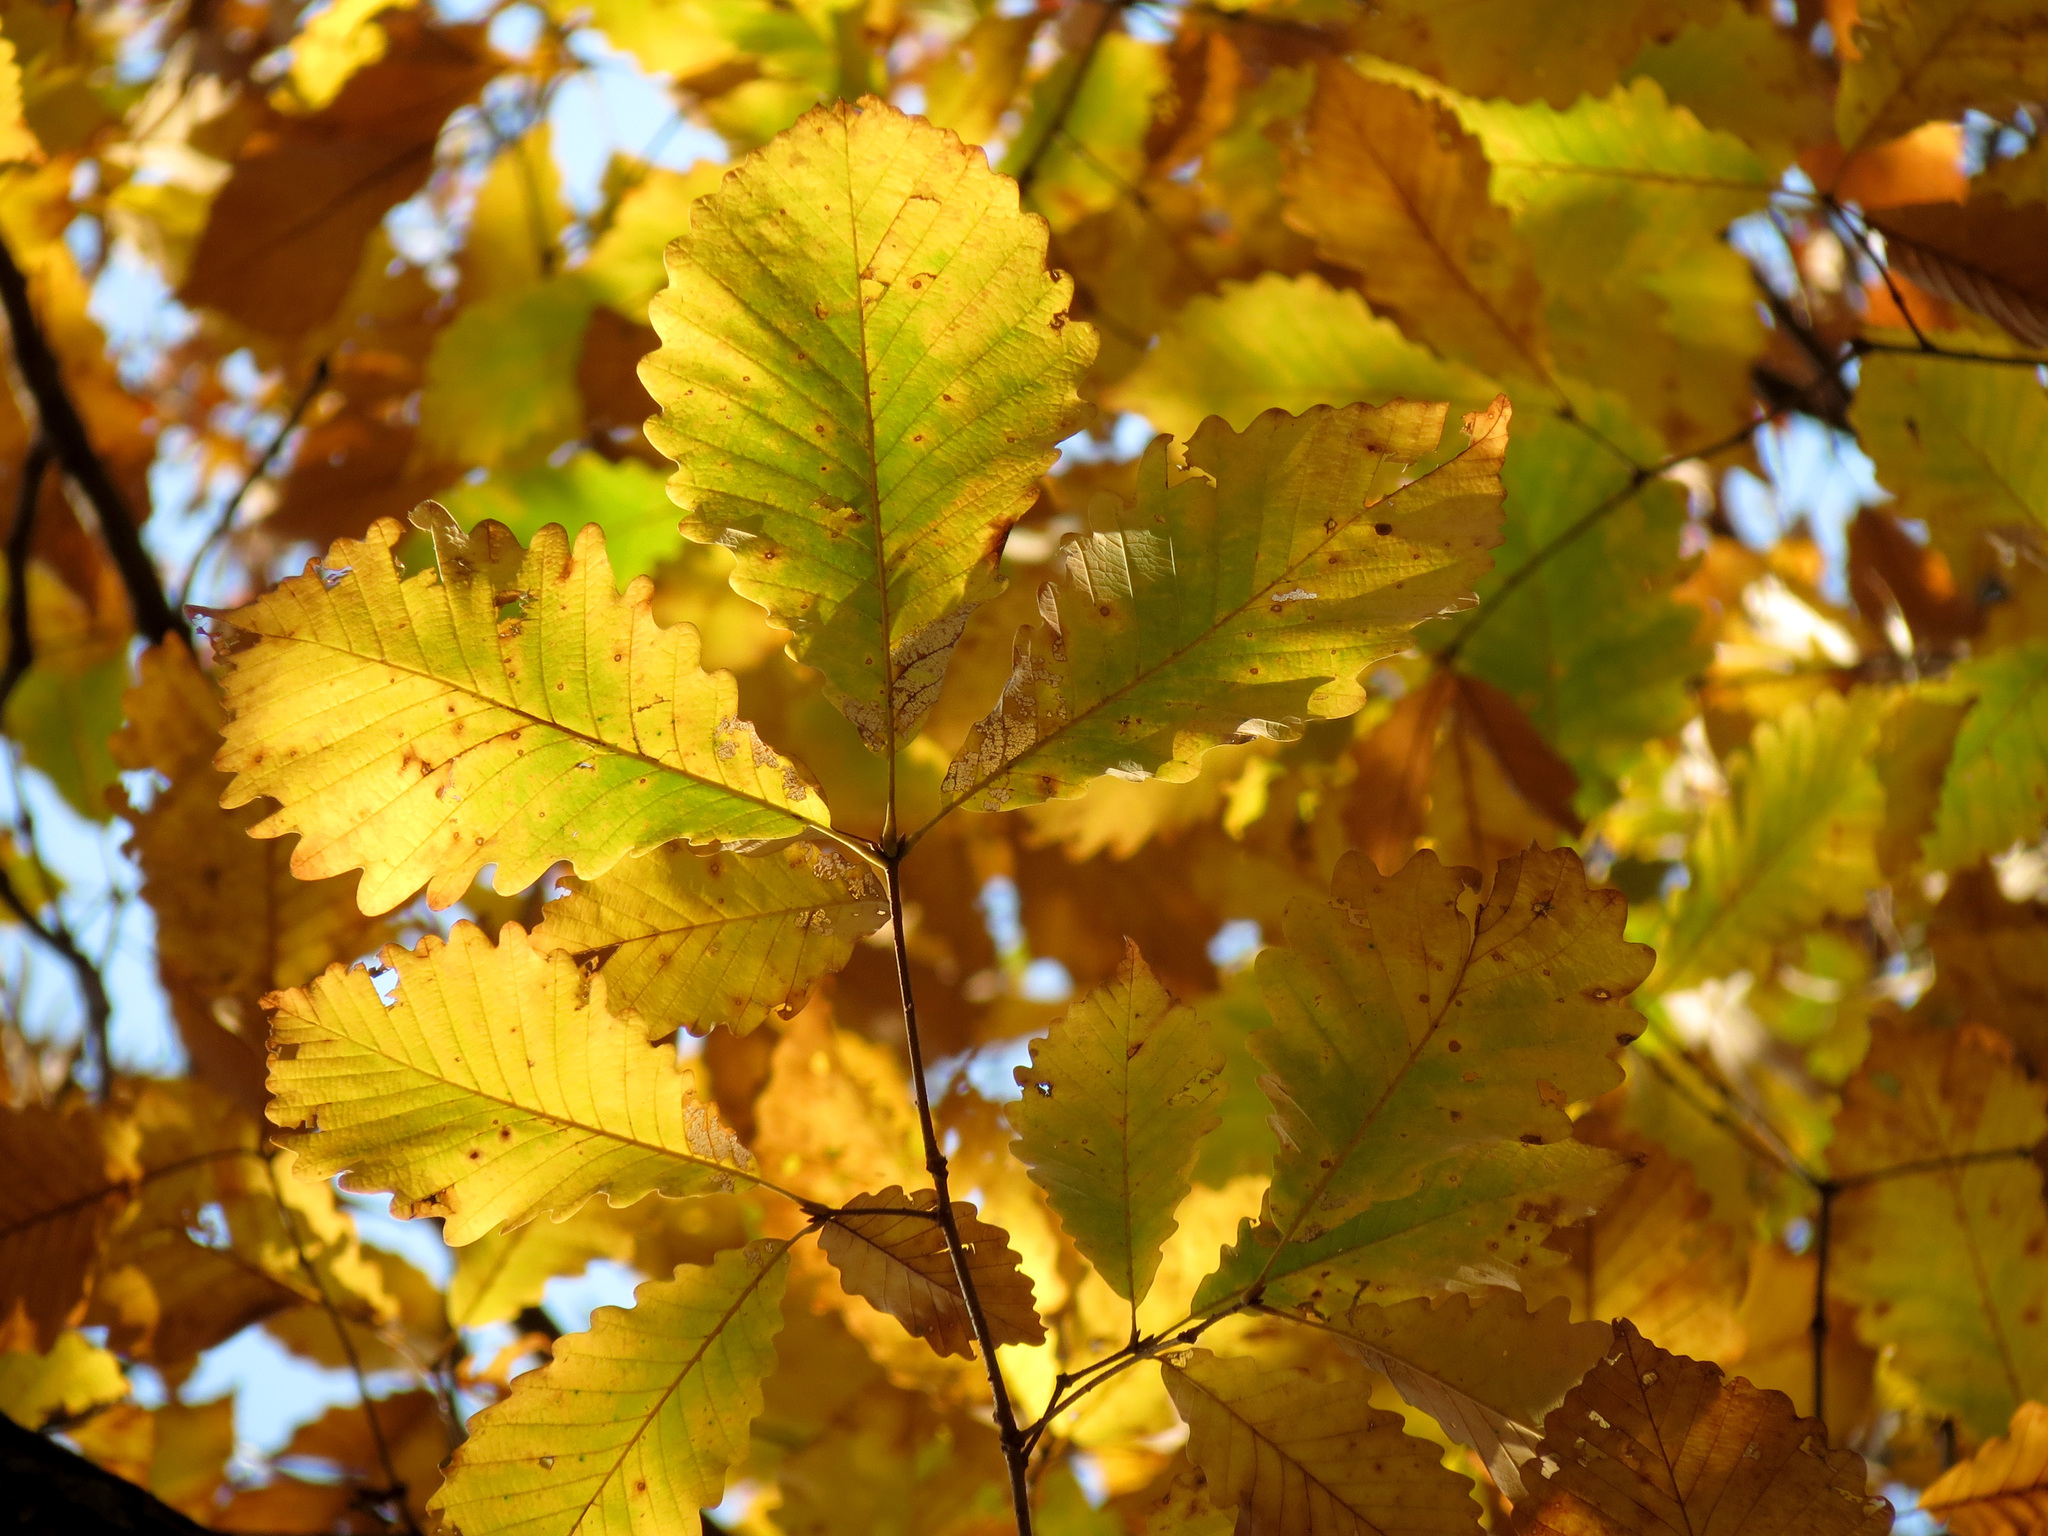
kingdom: Plantae
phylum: Tracheophyta
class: Magnoliopsida
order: Fagales
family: Fagaceae
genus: Quercus
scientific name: Quercus montana
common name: Chestnut oak
